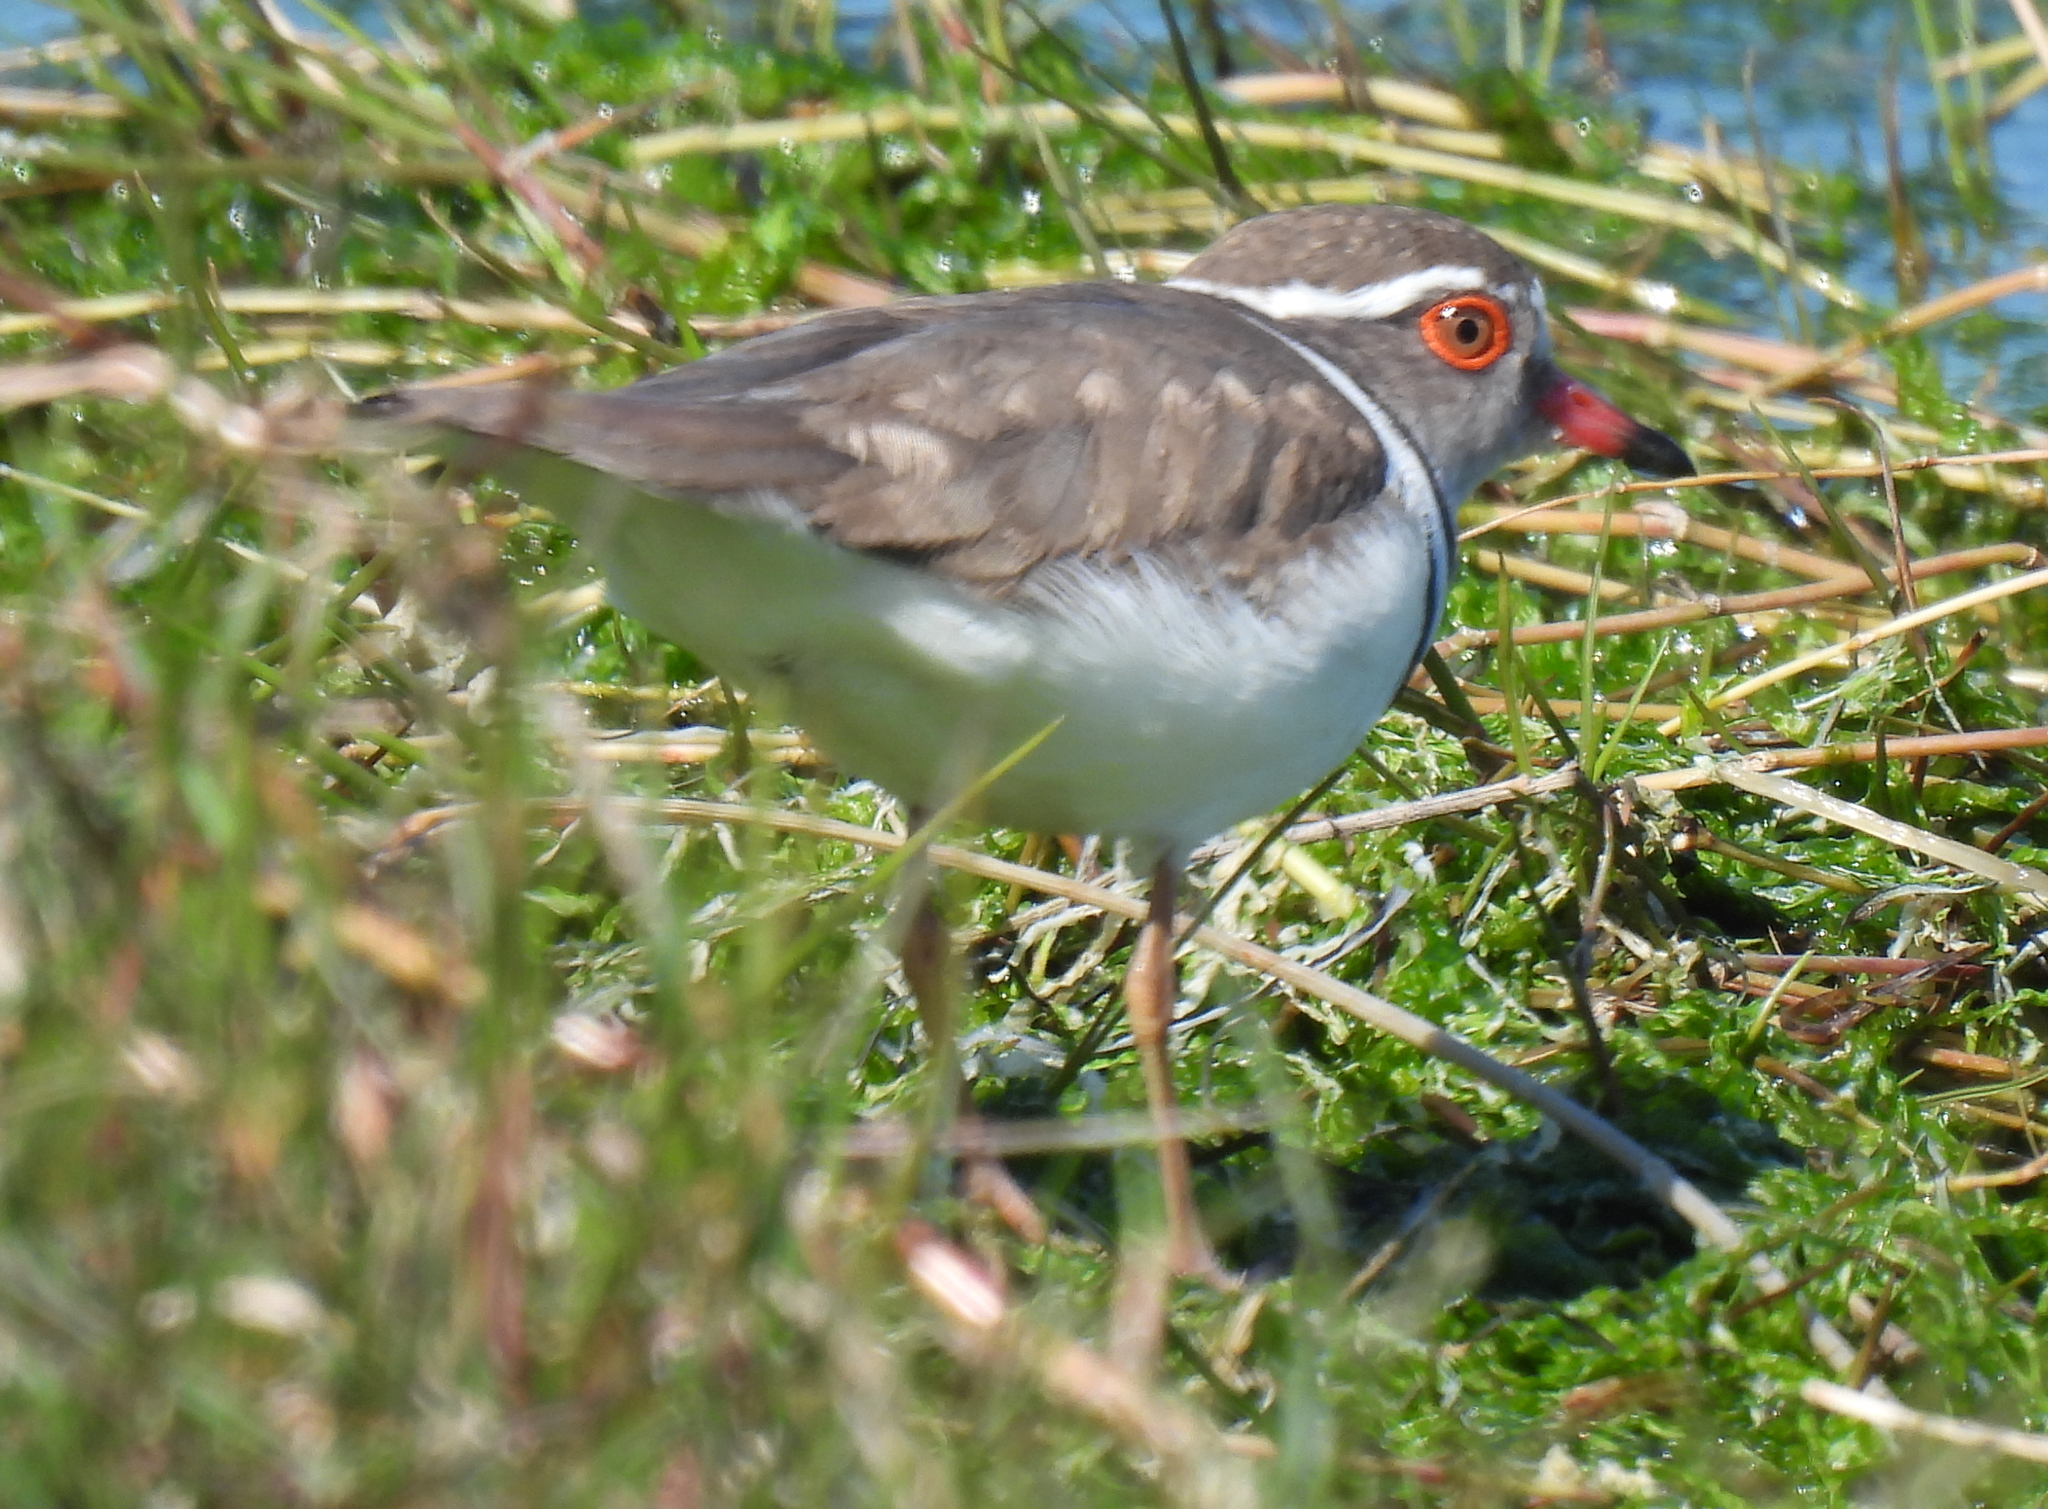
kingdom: Animalia
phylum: Chordata
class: Aves
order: Charadriiformes
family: Charadriidae
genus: Charadrius
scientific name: Charadrius tricollaris
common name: Three-banded plover
